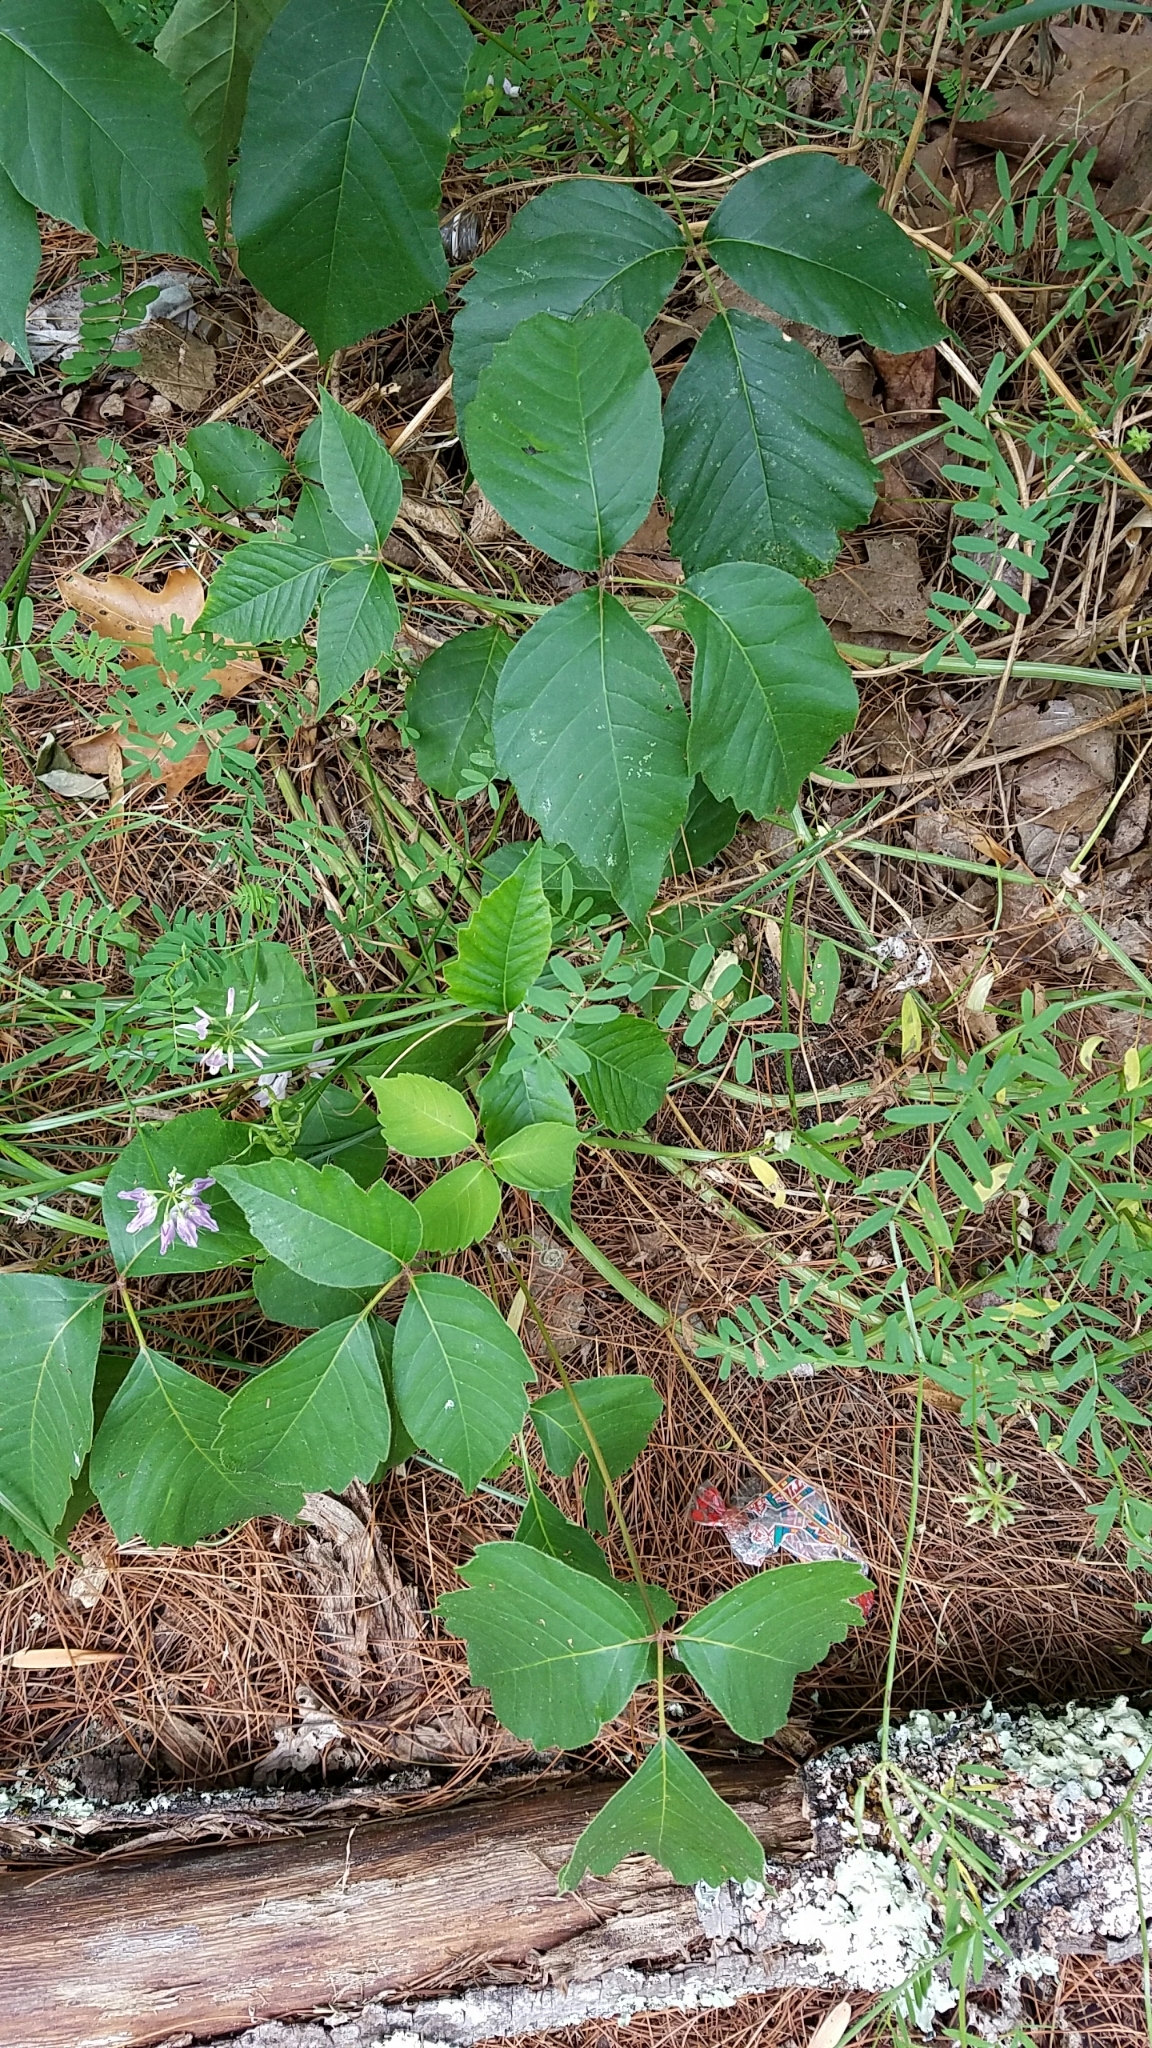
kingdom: Plantae
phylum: Tracheophyta
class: Magnoliopsida
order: Sapindales
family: Anacardiaceae
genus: Toxicodendron
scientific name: Toxicodendron radicans
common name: Poison ivy
